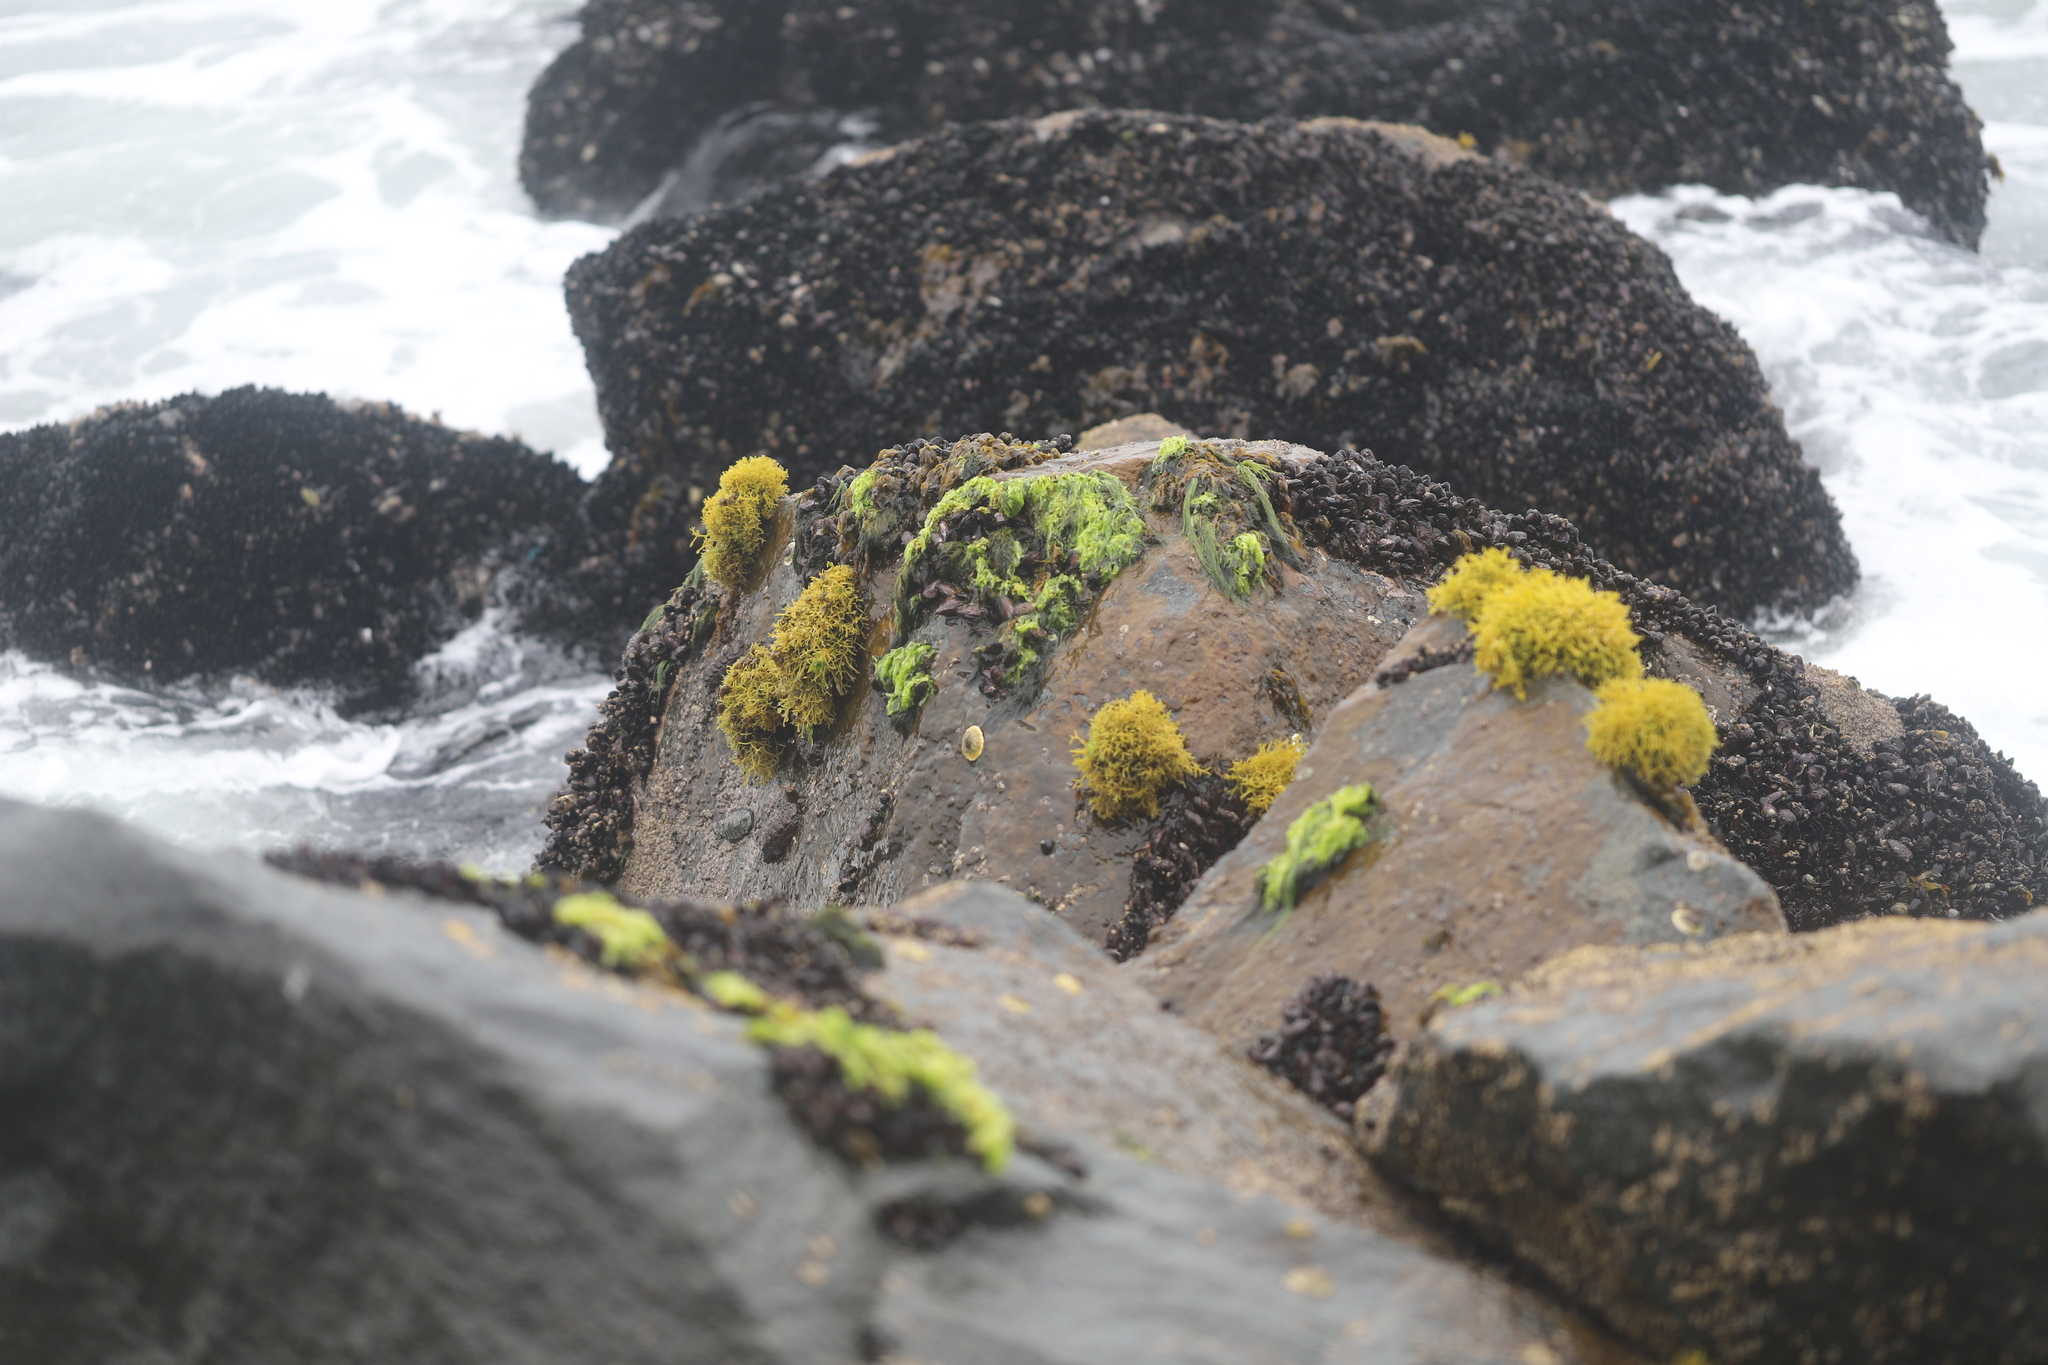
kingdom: Plantae
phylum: Rhodophyta
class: Florideophyceae
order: Gigartinales
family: Phyllophoraceae
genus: Gymnogongrus
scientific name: Gymnogongrus durvillei
